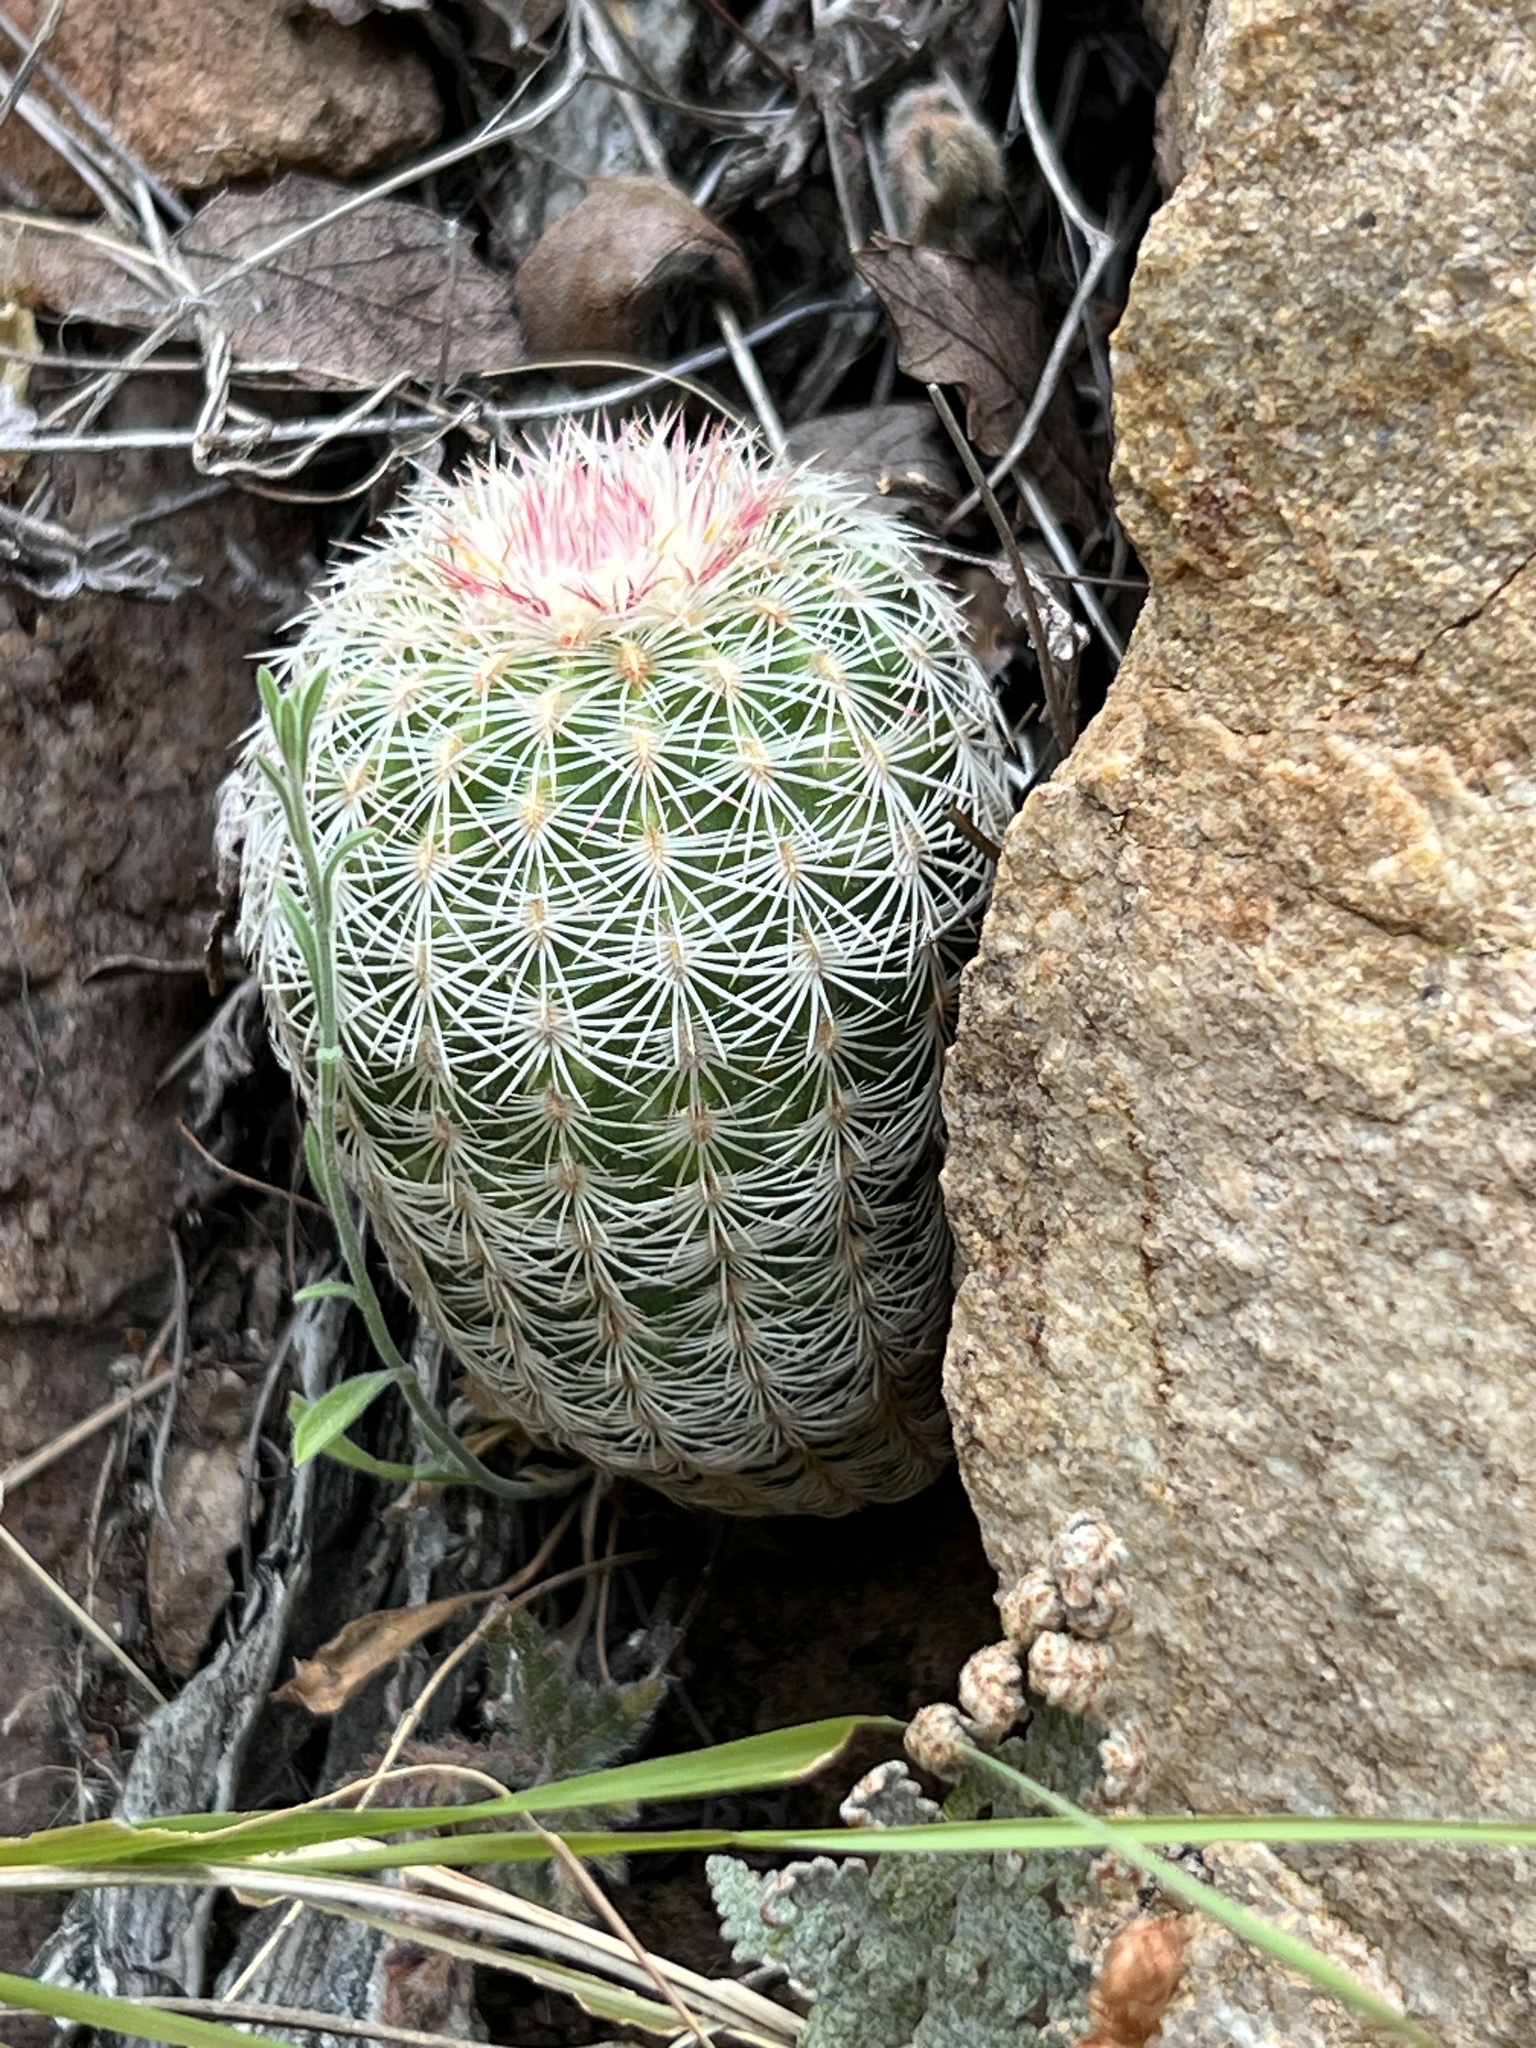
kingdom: Plantae
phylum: Tracheophyta
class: Magnoliopsida
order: Caryophyllales
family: Cactaceae
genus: Echinocereus
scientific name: Echinocereus rigidissimus
